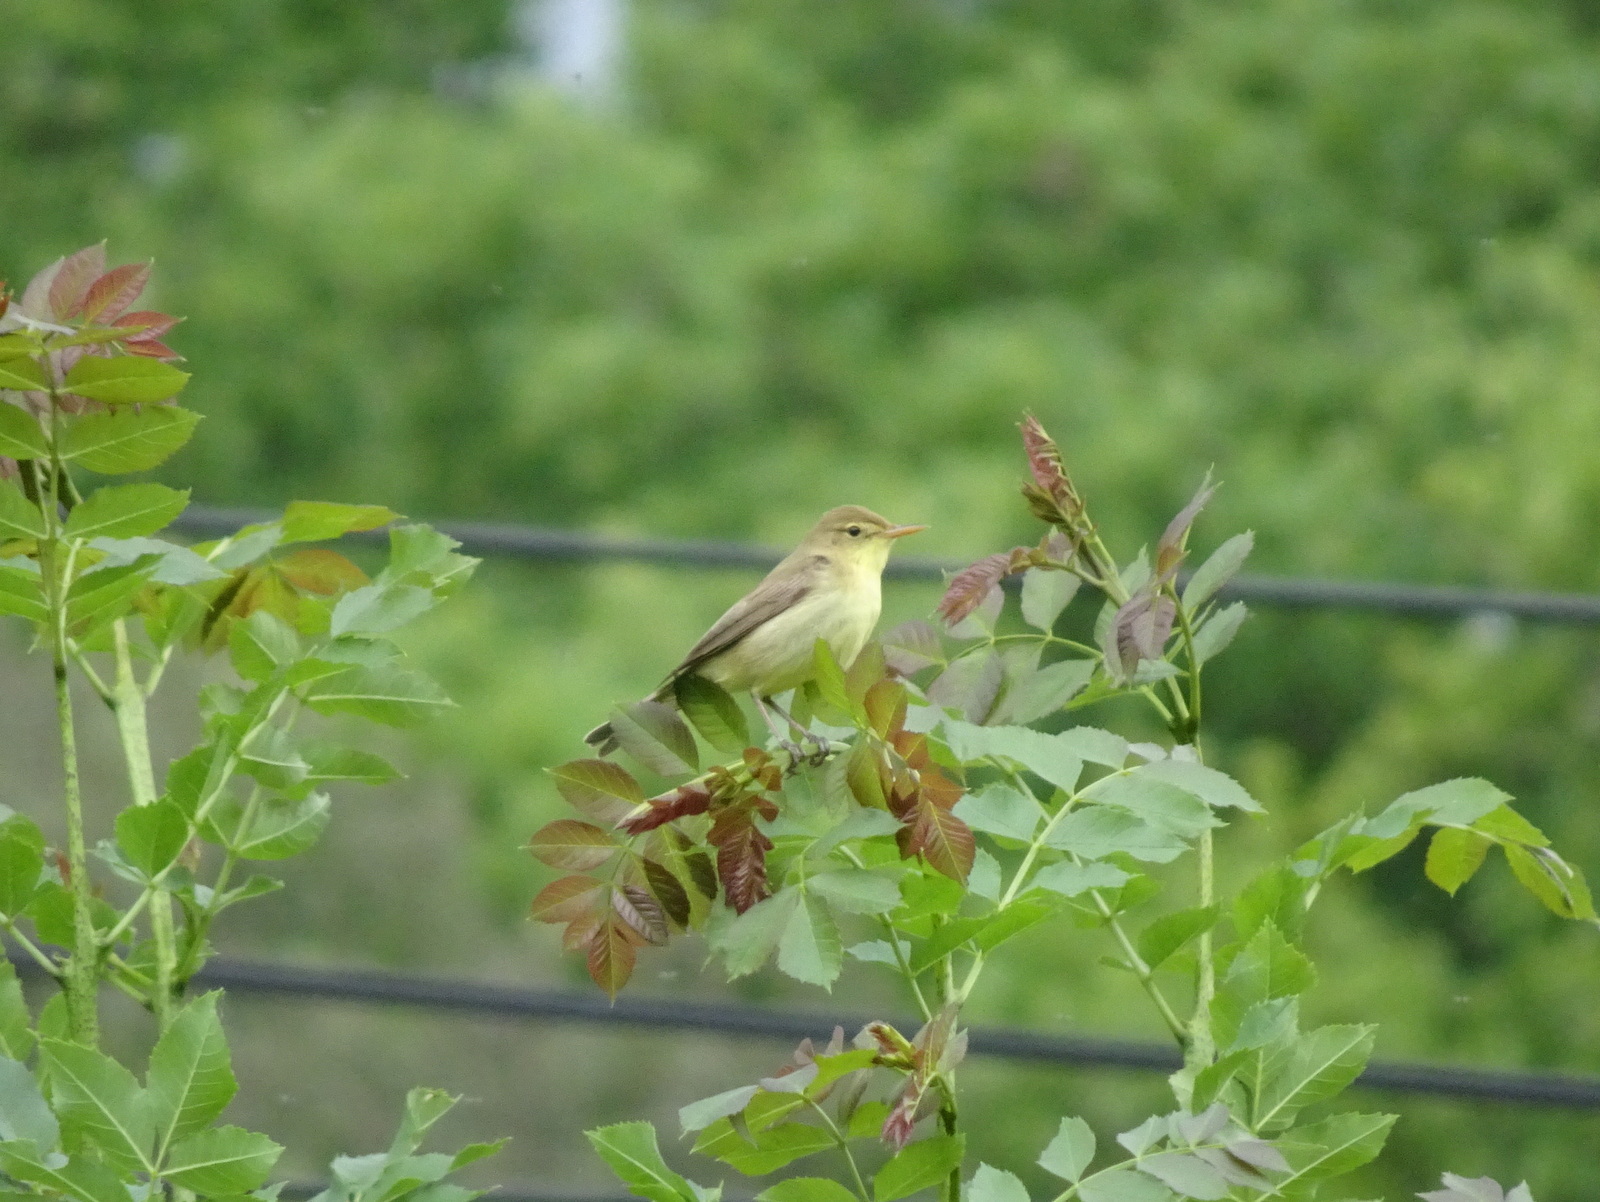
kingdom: Animalia
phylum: Chordata
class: Aves
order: Passeriformes
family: Acrocephalidae
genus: Hippolais
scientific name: Hippolais polyglotta
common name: Melodious warbler
